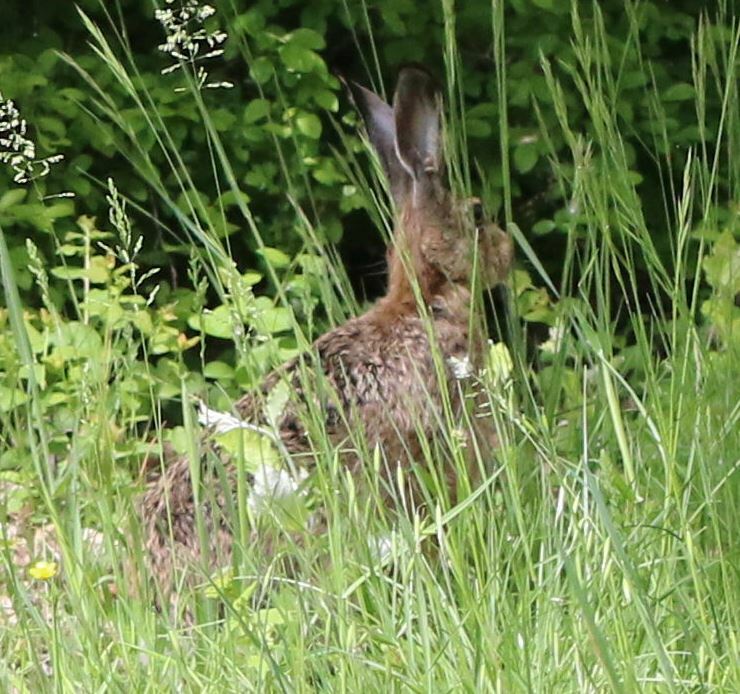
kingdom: Animalia
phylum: Chordata
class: Mammalia
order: Lagomorpha
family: Leporidae
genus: Lepus
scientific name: Lepus europaeus
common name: European hare
